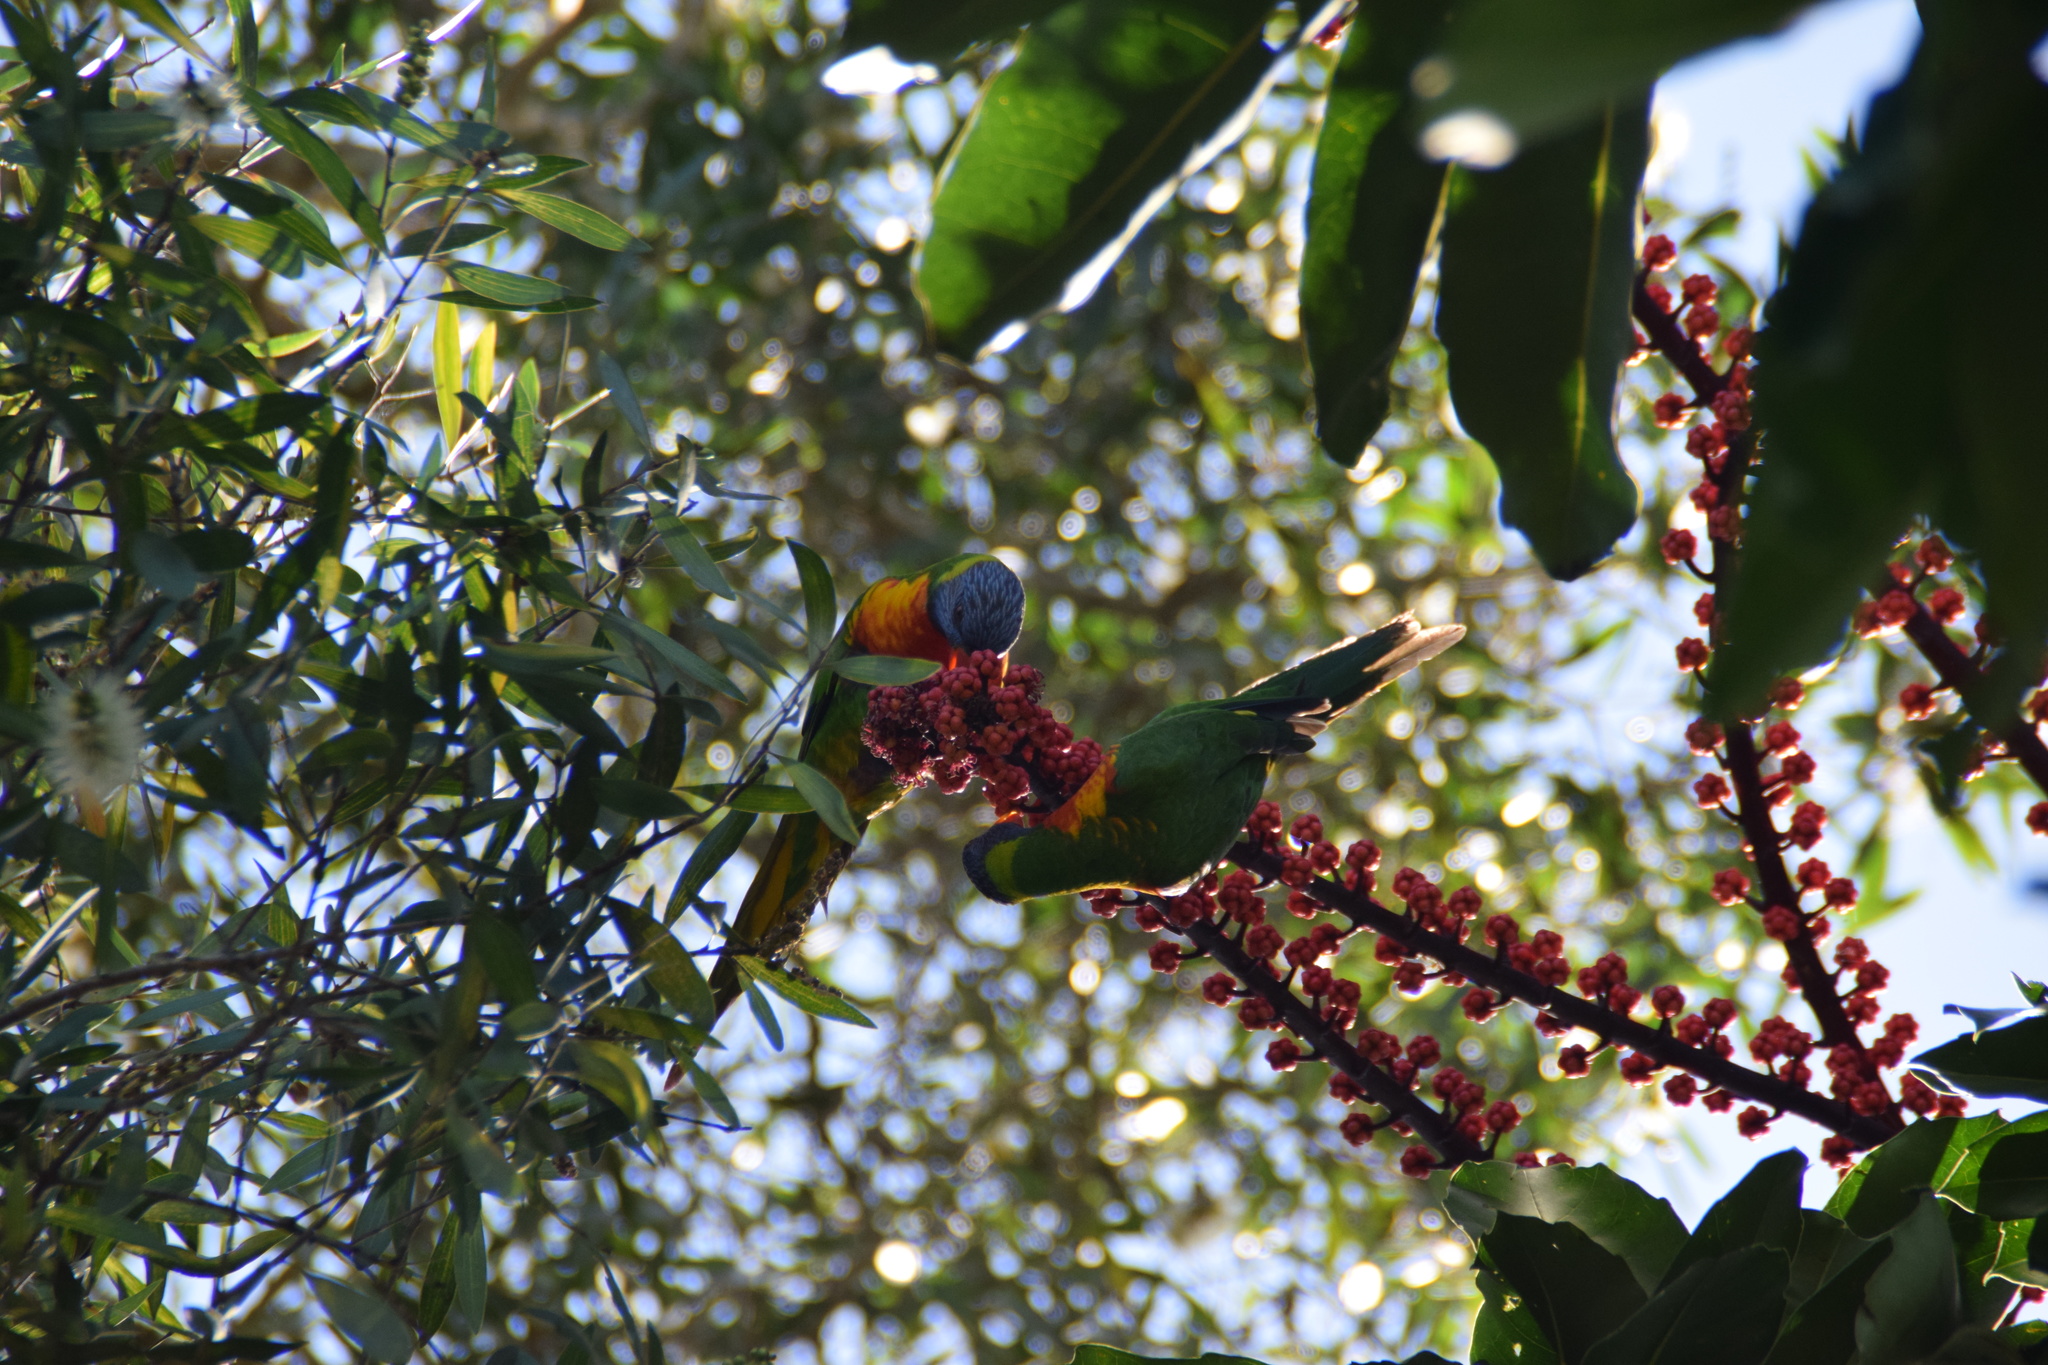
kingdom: Animalia
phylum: Chordata
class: Aves
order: Psittaciformes
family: Psittacidae
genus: Trichoglossus
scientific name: Trichoglossus haematodus
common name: Coconut lorikeet
